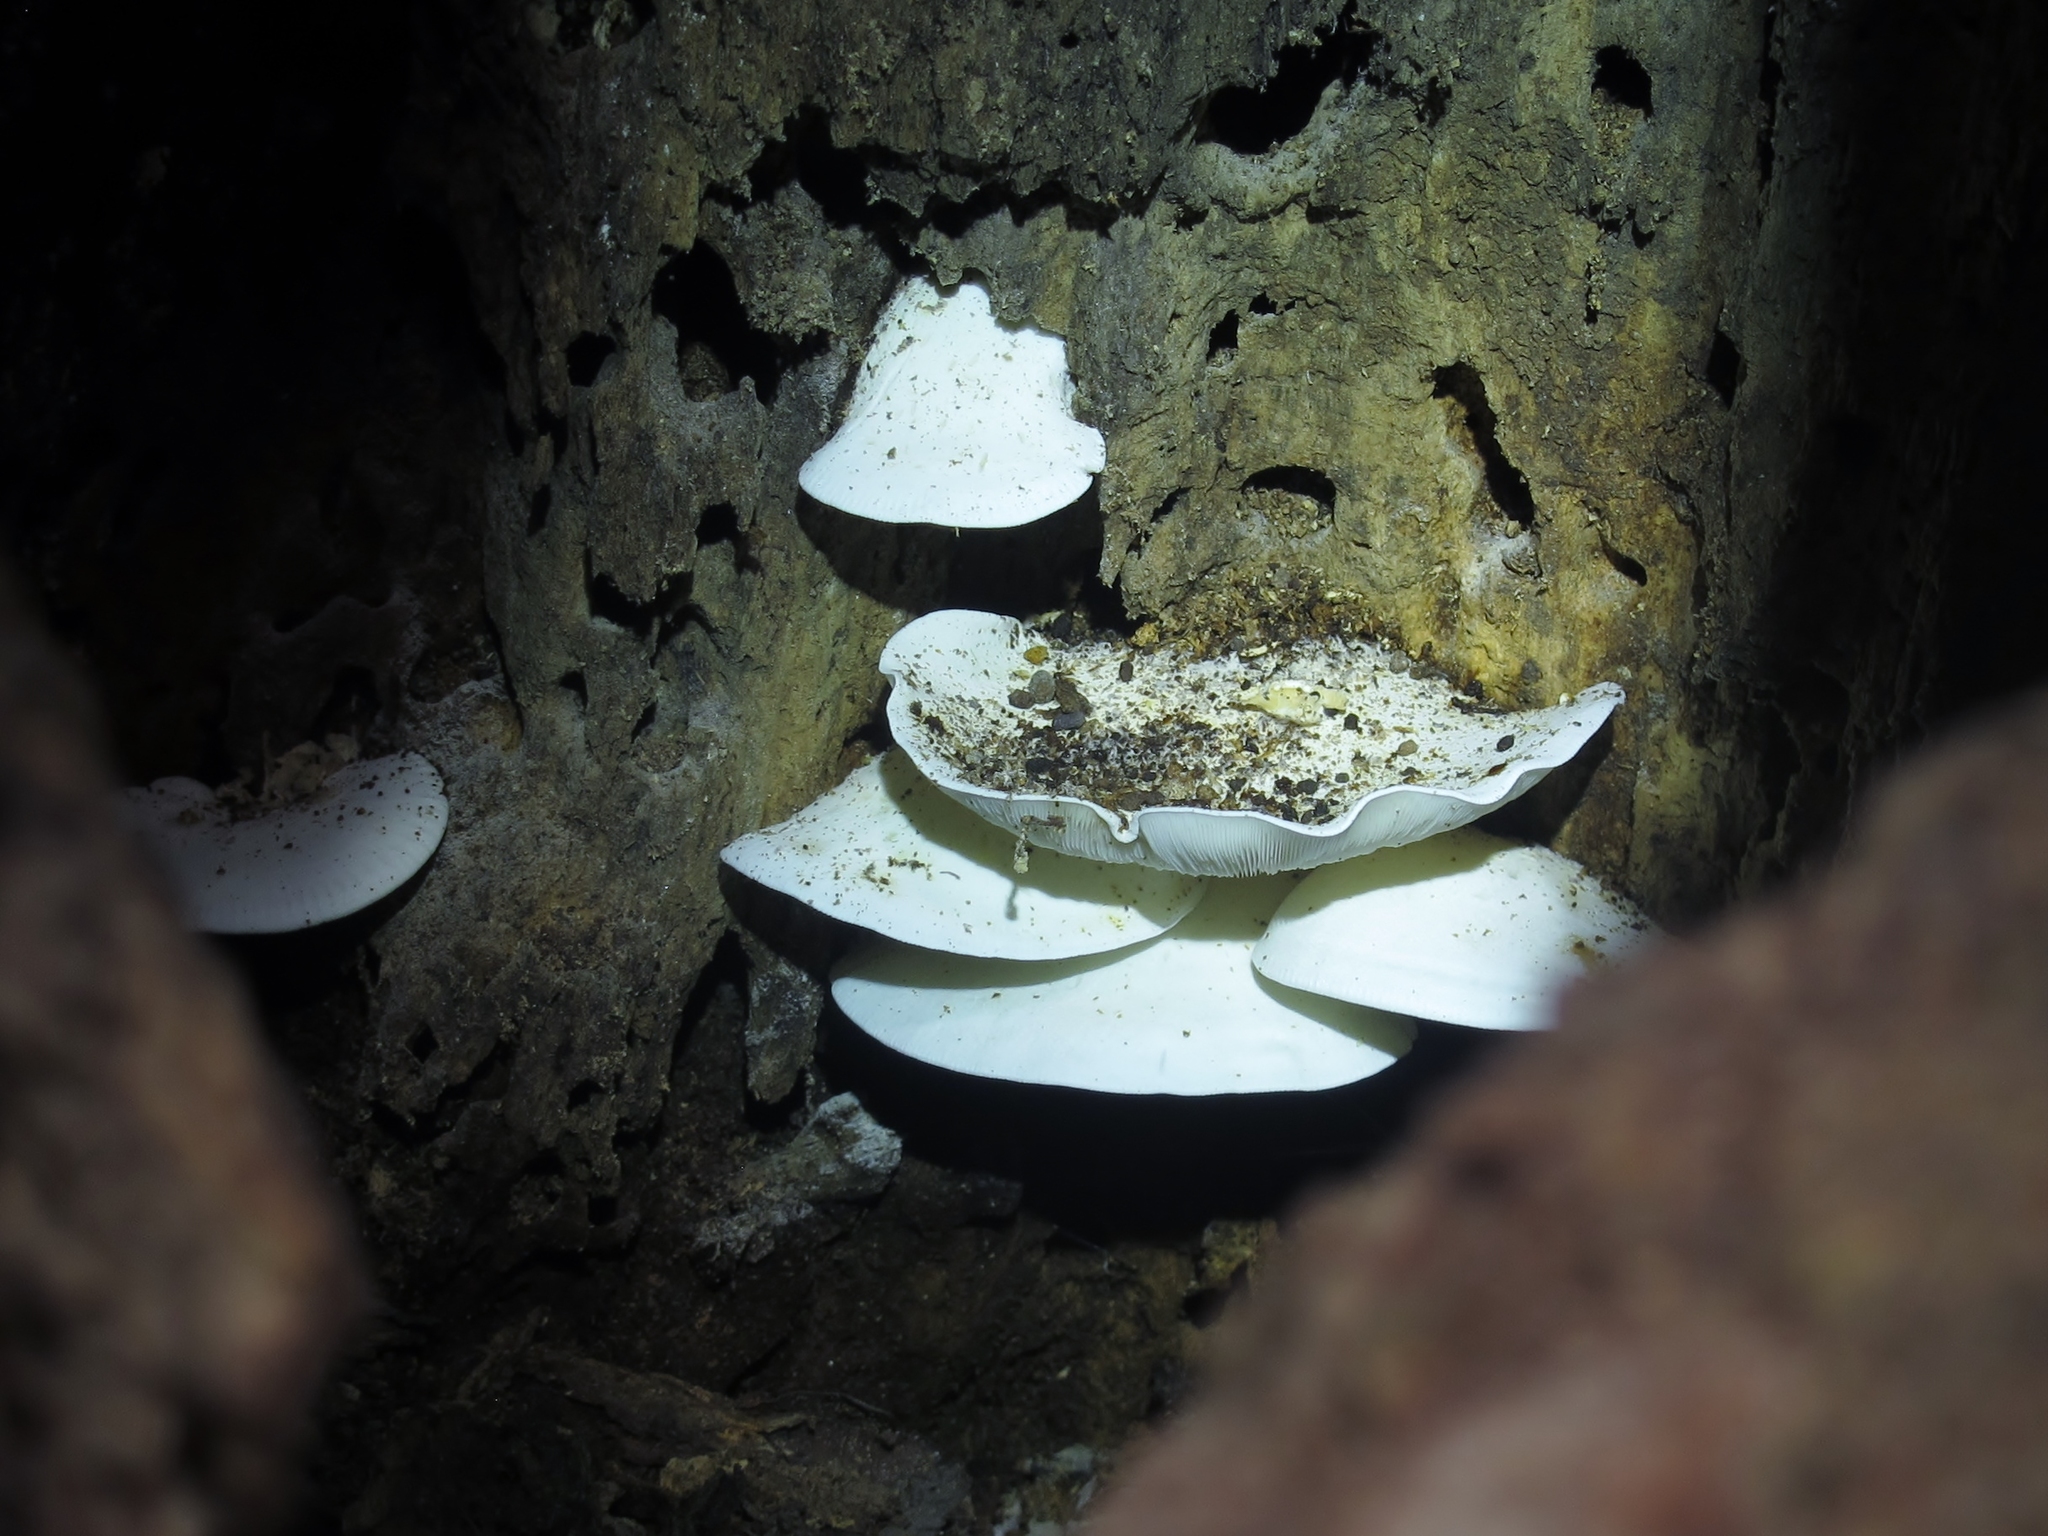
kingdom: Fungi
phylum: Basidiomycota
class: Agaricomycetes
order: Agaricales
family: Lyophyllaceae
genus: Ossicaulis
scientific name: Ossicaulis lignatilis
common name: Mealy oyster
